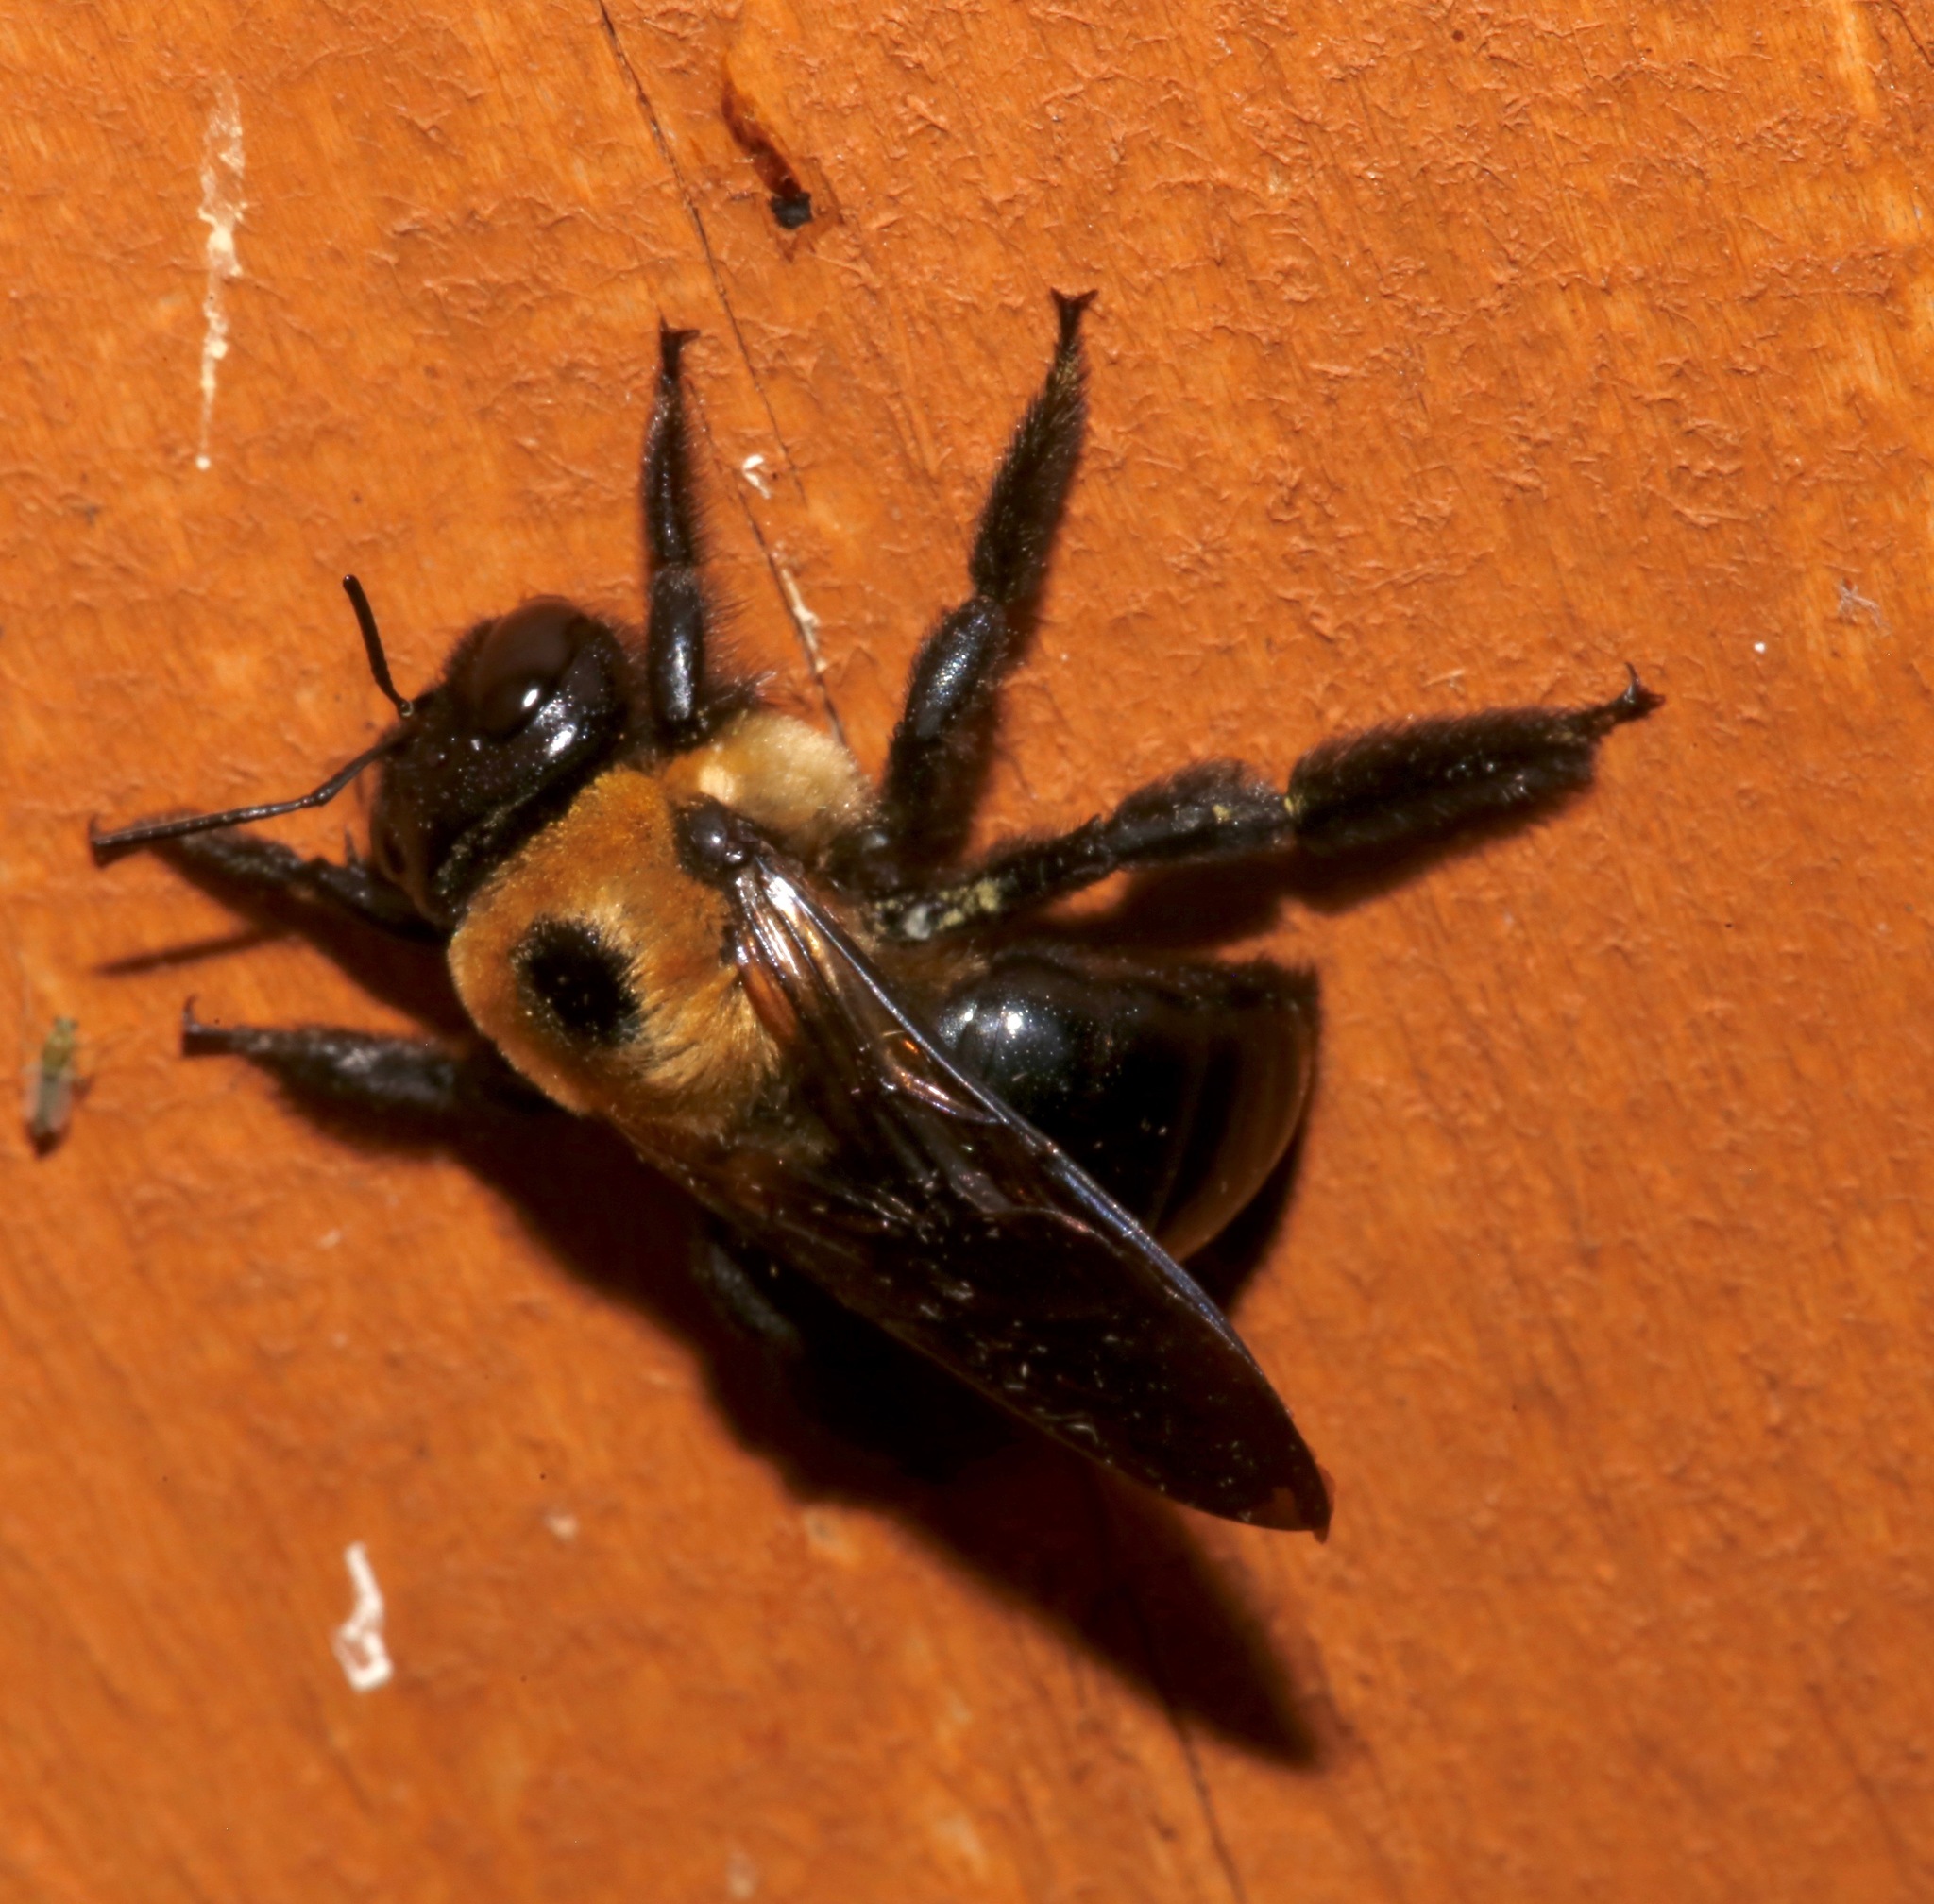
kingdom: Animalia
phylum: Arthropoda
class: Insecta
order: Hymenoptera
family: Apidae
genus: Xylocopa
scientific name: Xylocopa virginica
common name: Carpenter bee
